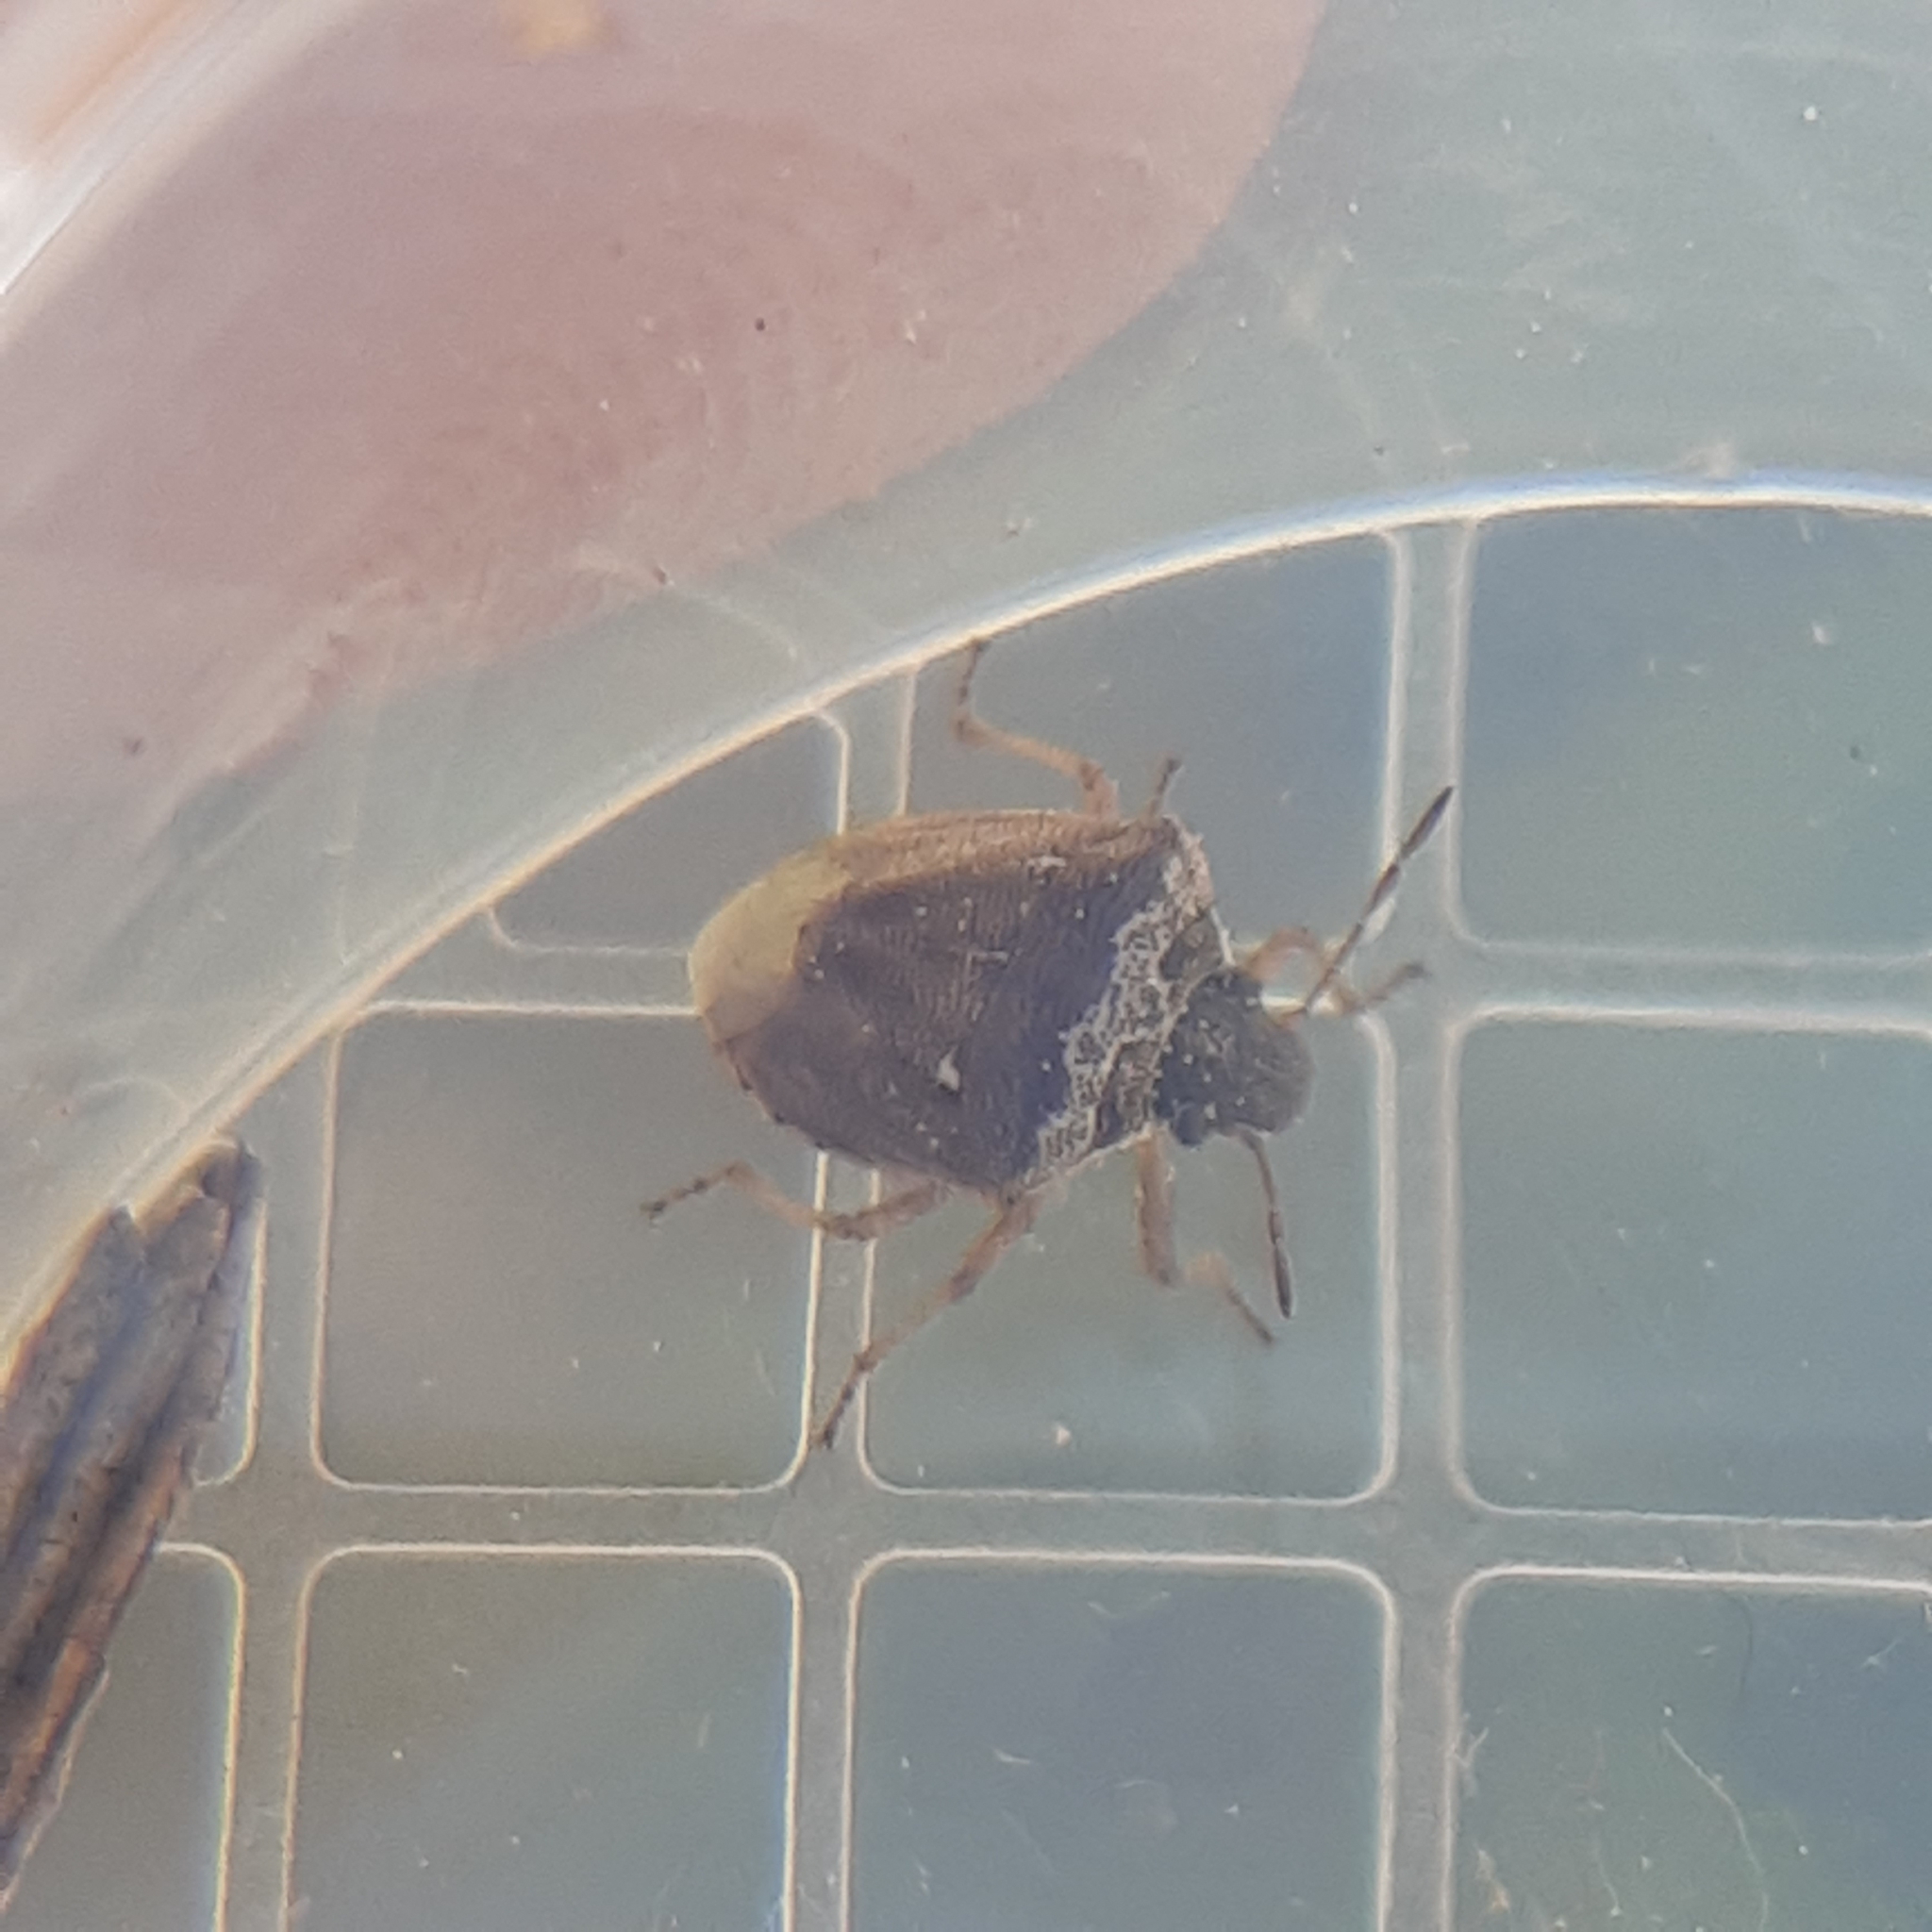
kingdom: Animalia
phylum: Arthropoda
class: Insecta
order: Hemiptera
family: Pentatomidae
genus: Eysarcoris
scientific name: Eysarcoris ventralis
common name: White-spotted stink bug
